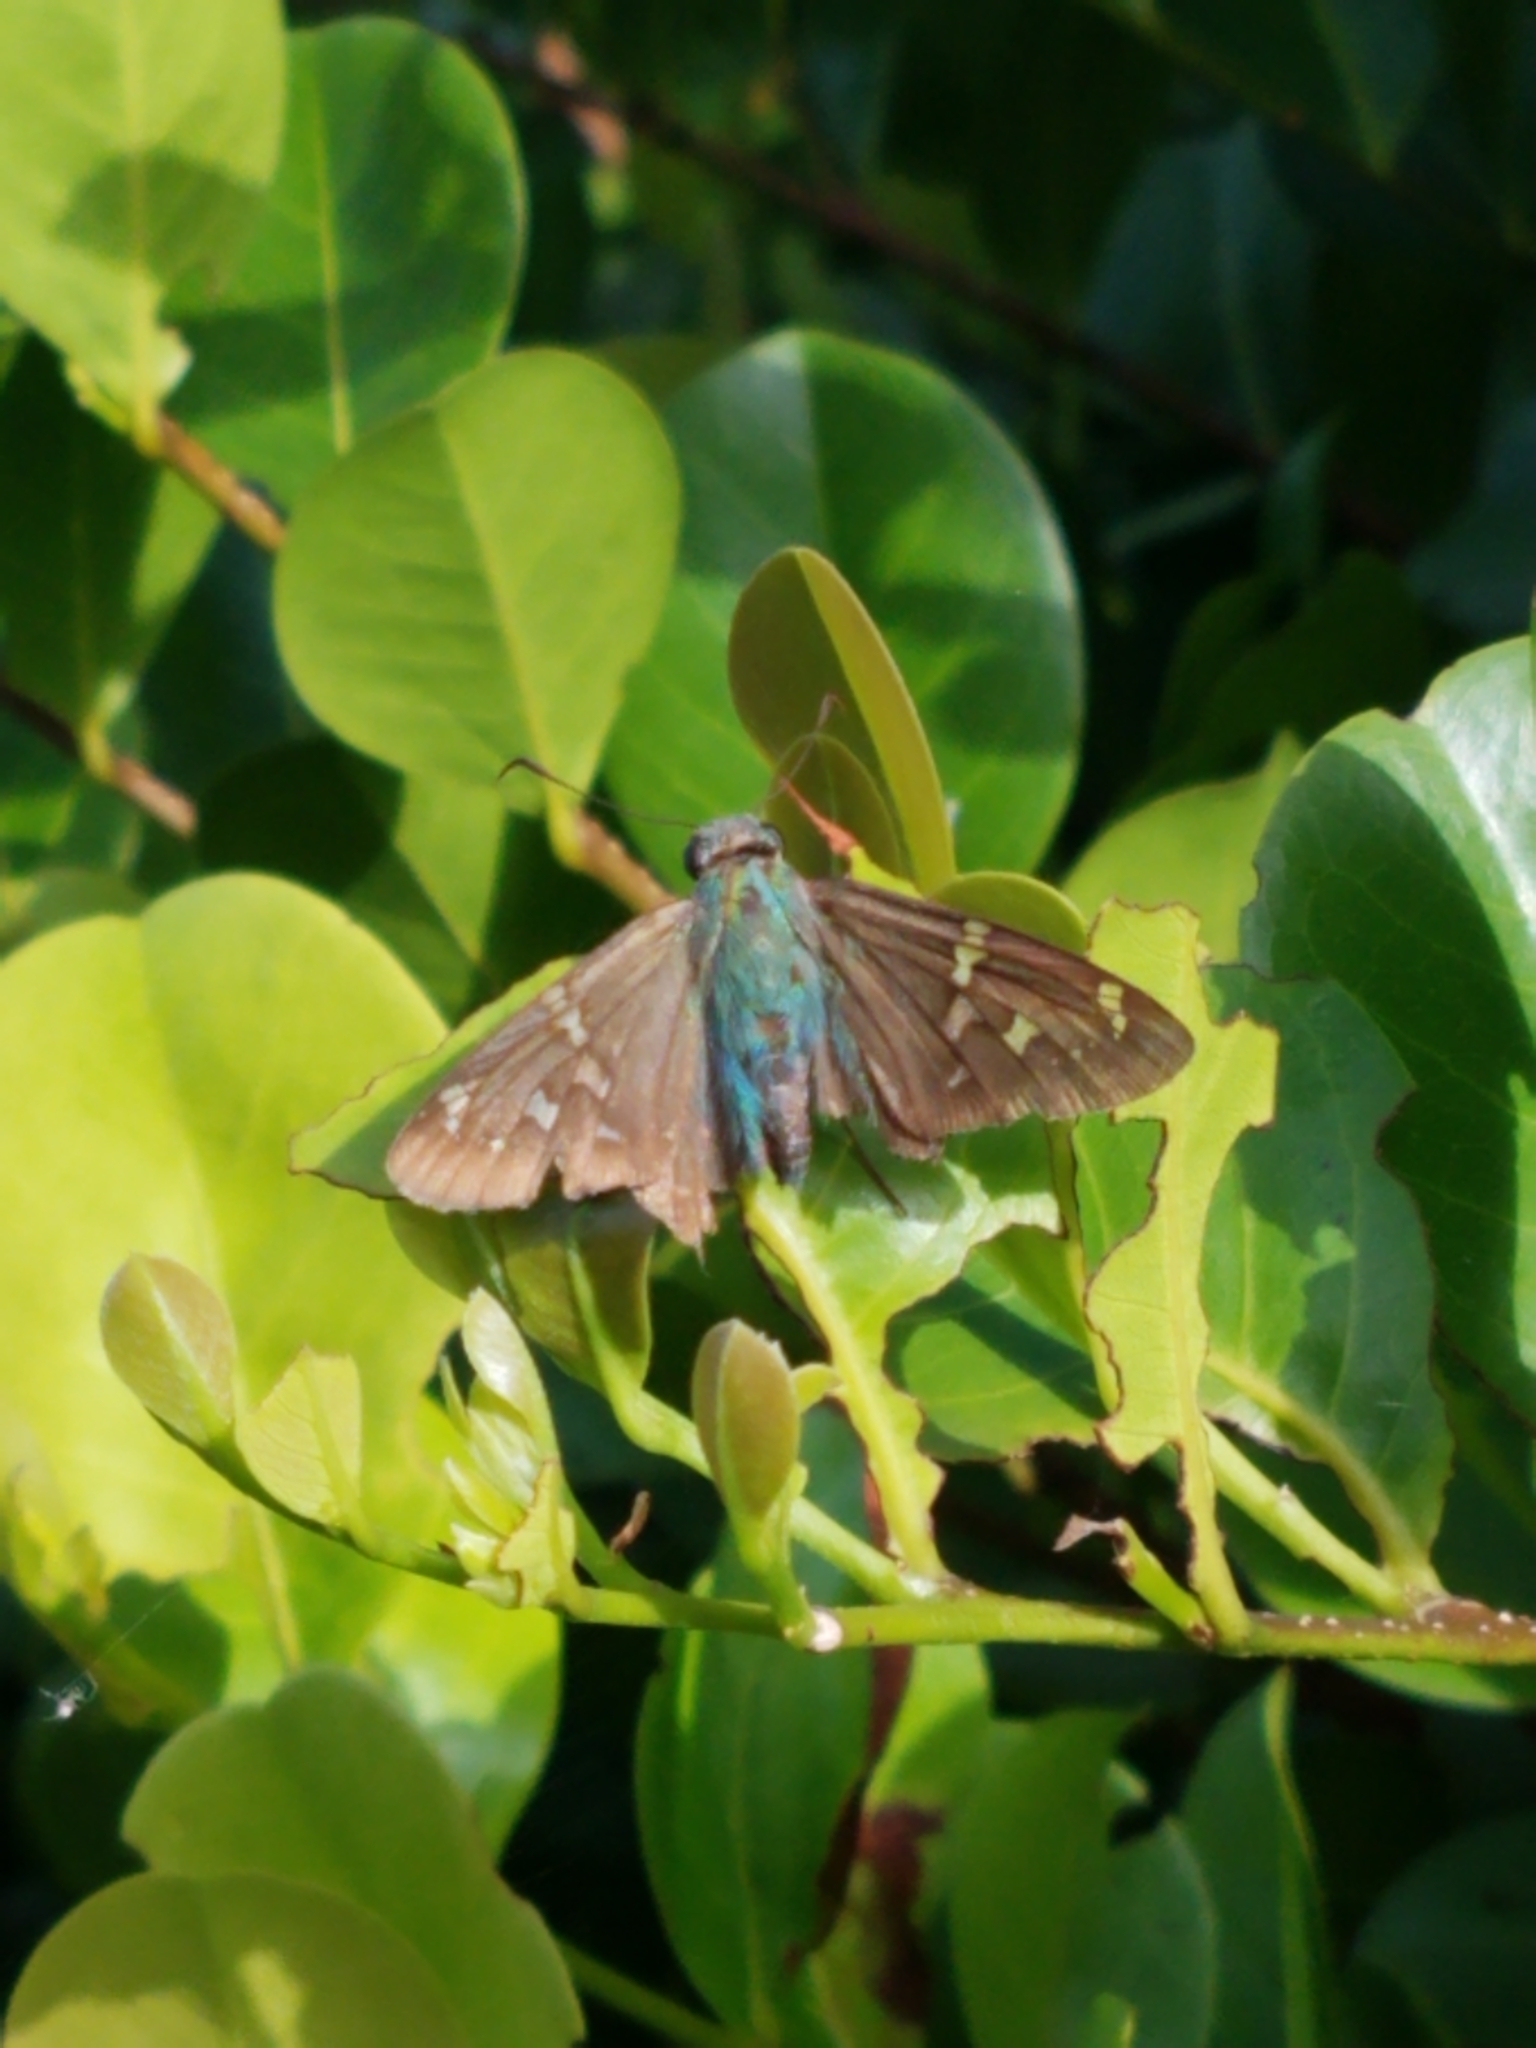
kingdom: Animalia
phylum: Arthropoda
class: Insecta
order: Lepidoptera
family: Hesperiidae
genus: Urbanus
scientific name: Urbanus proteus
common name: Long-tailed skipper
